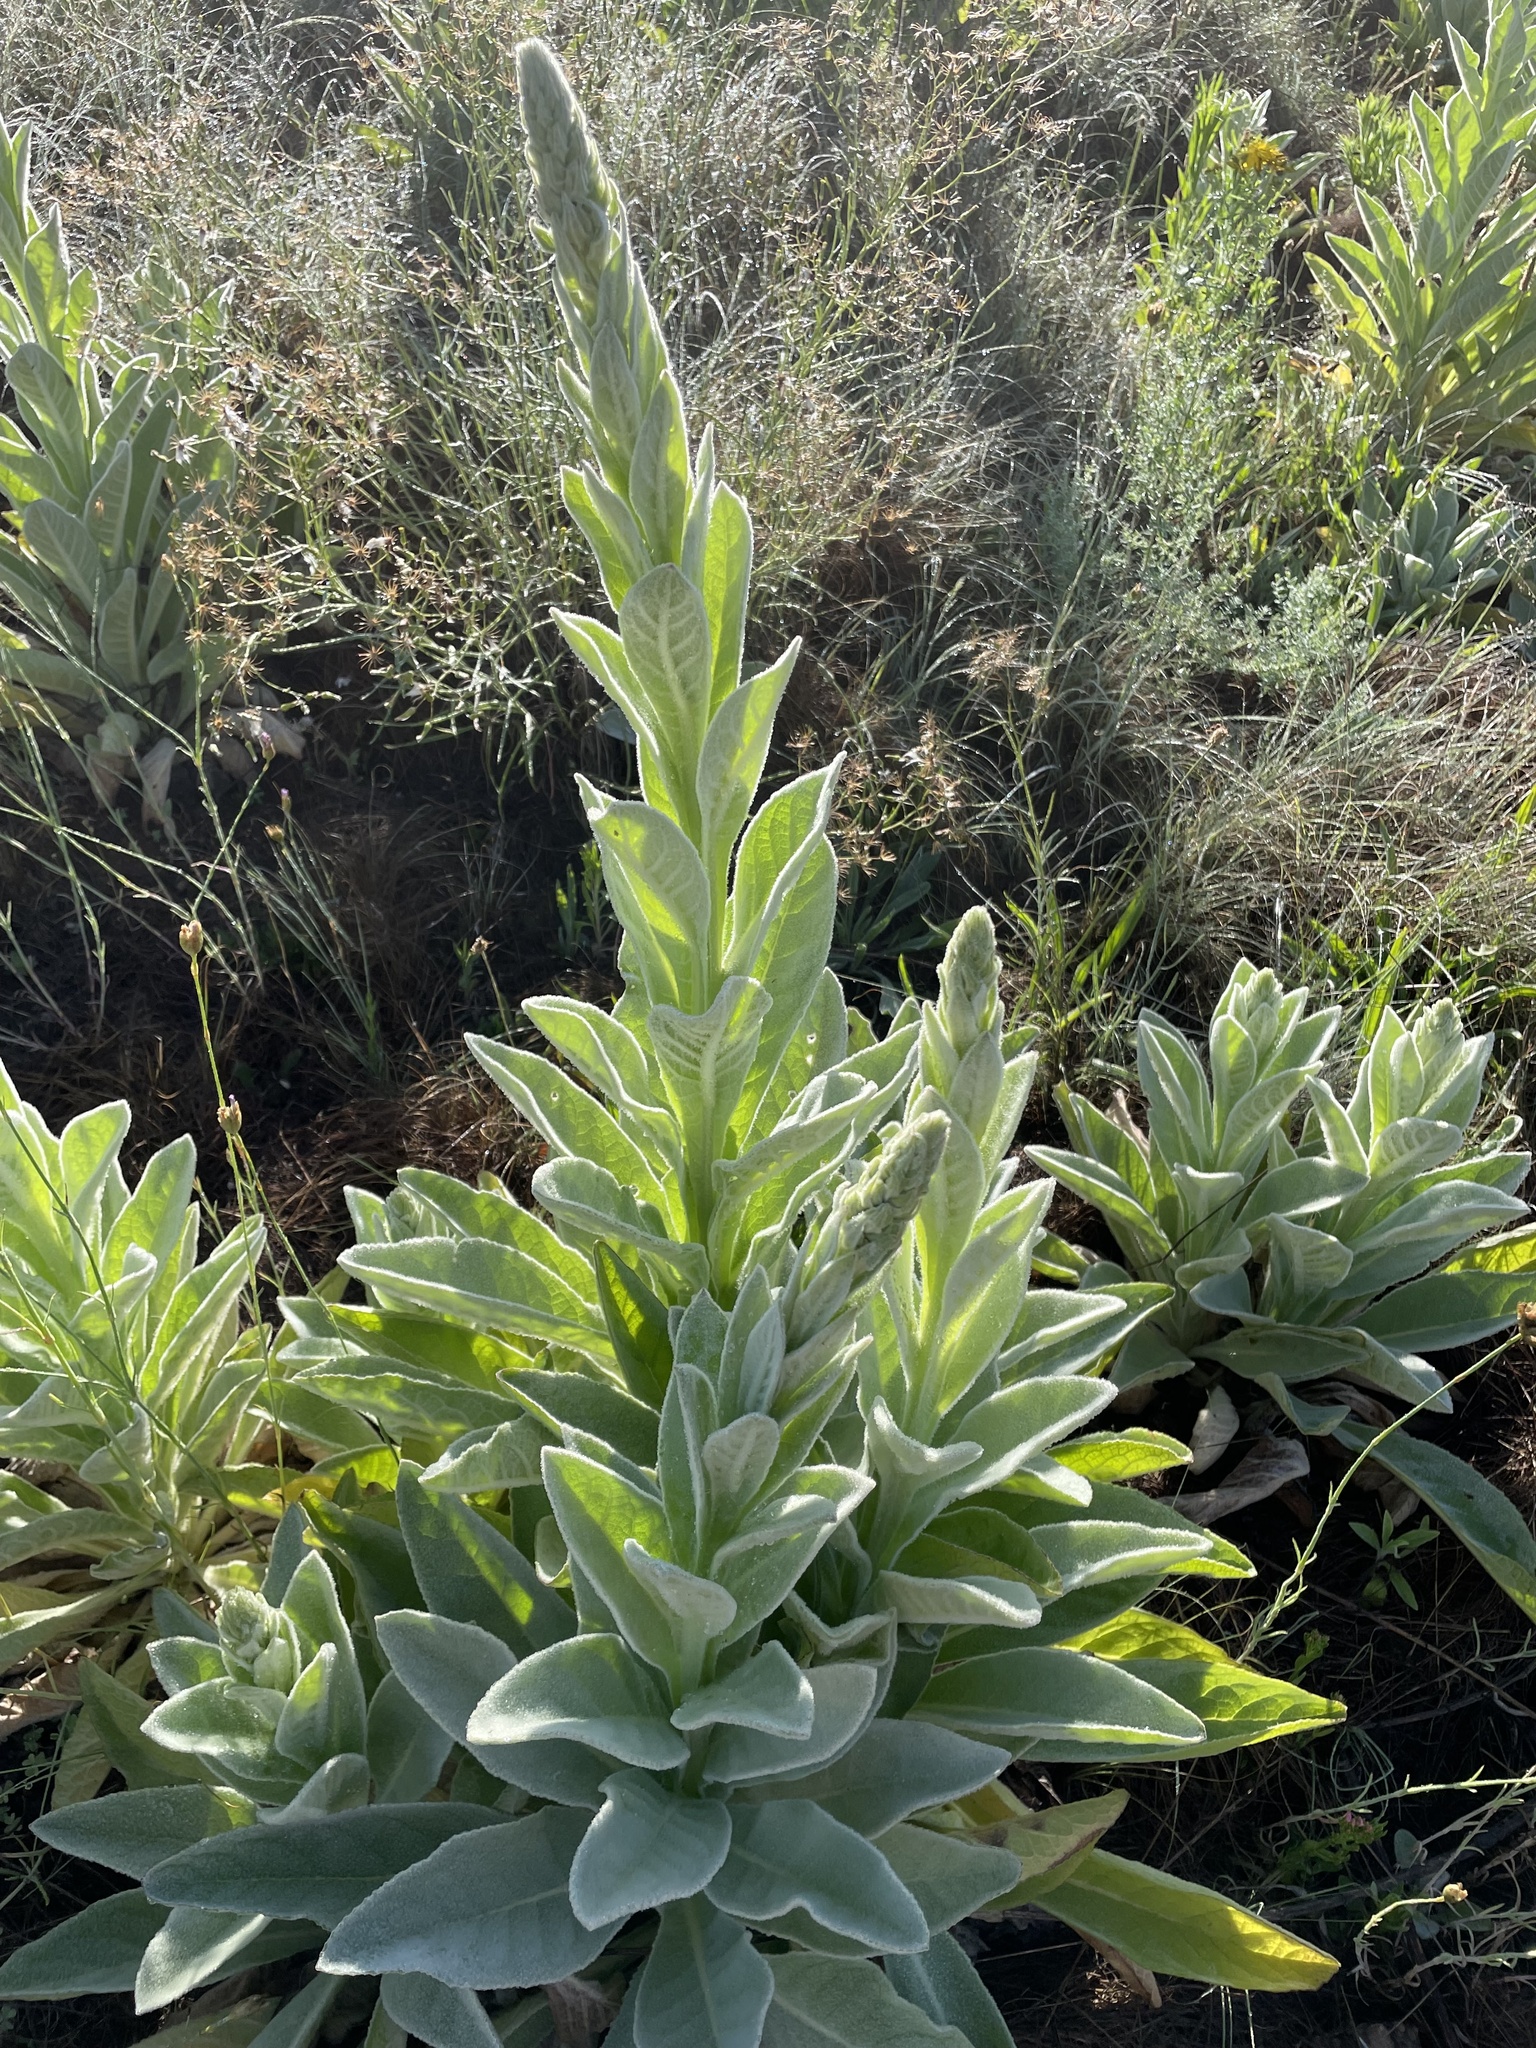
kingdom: Plantae
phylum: Tracheophyta
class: Magnoliopsida
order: Lamiales
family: Scrophulariaceae
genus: Verbascum
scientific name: Verbascum thapsus
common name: Common mullein
